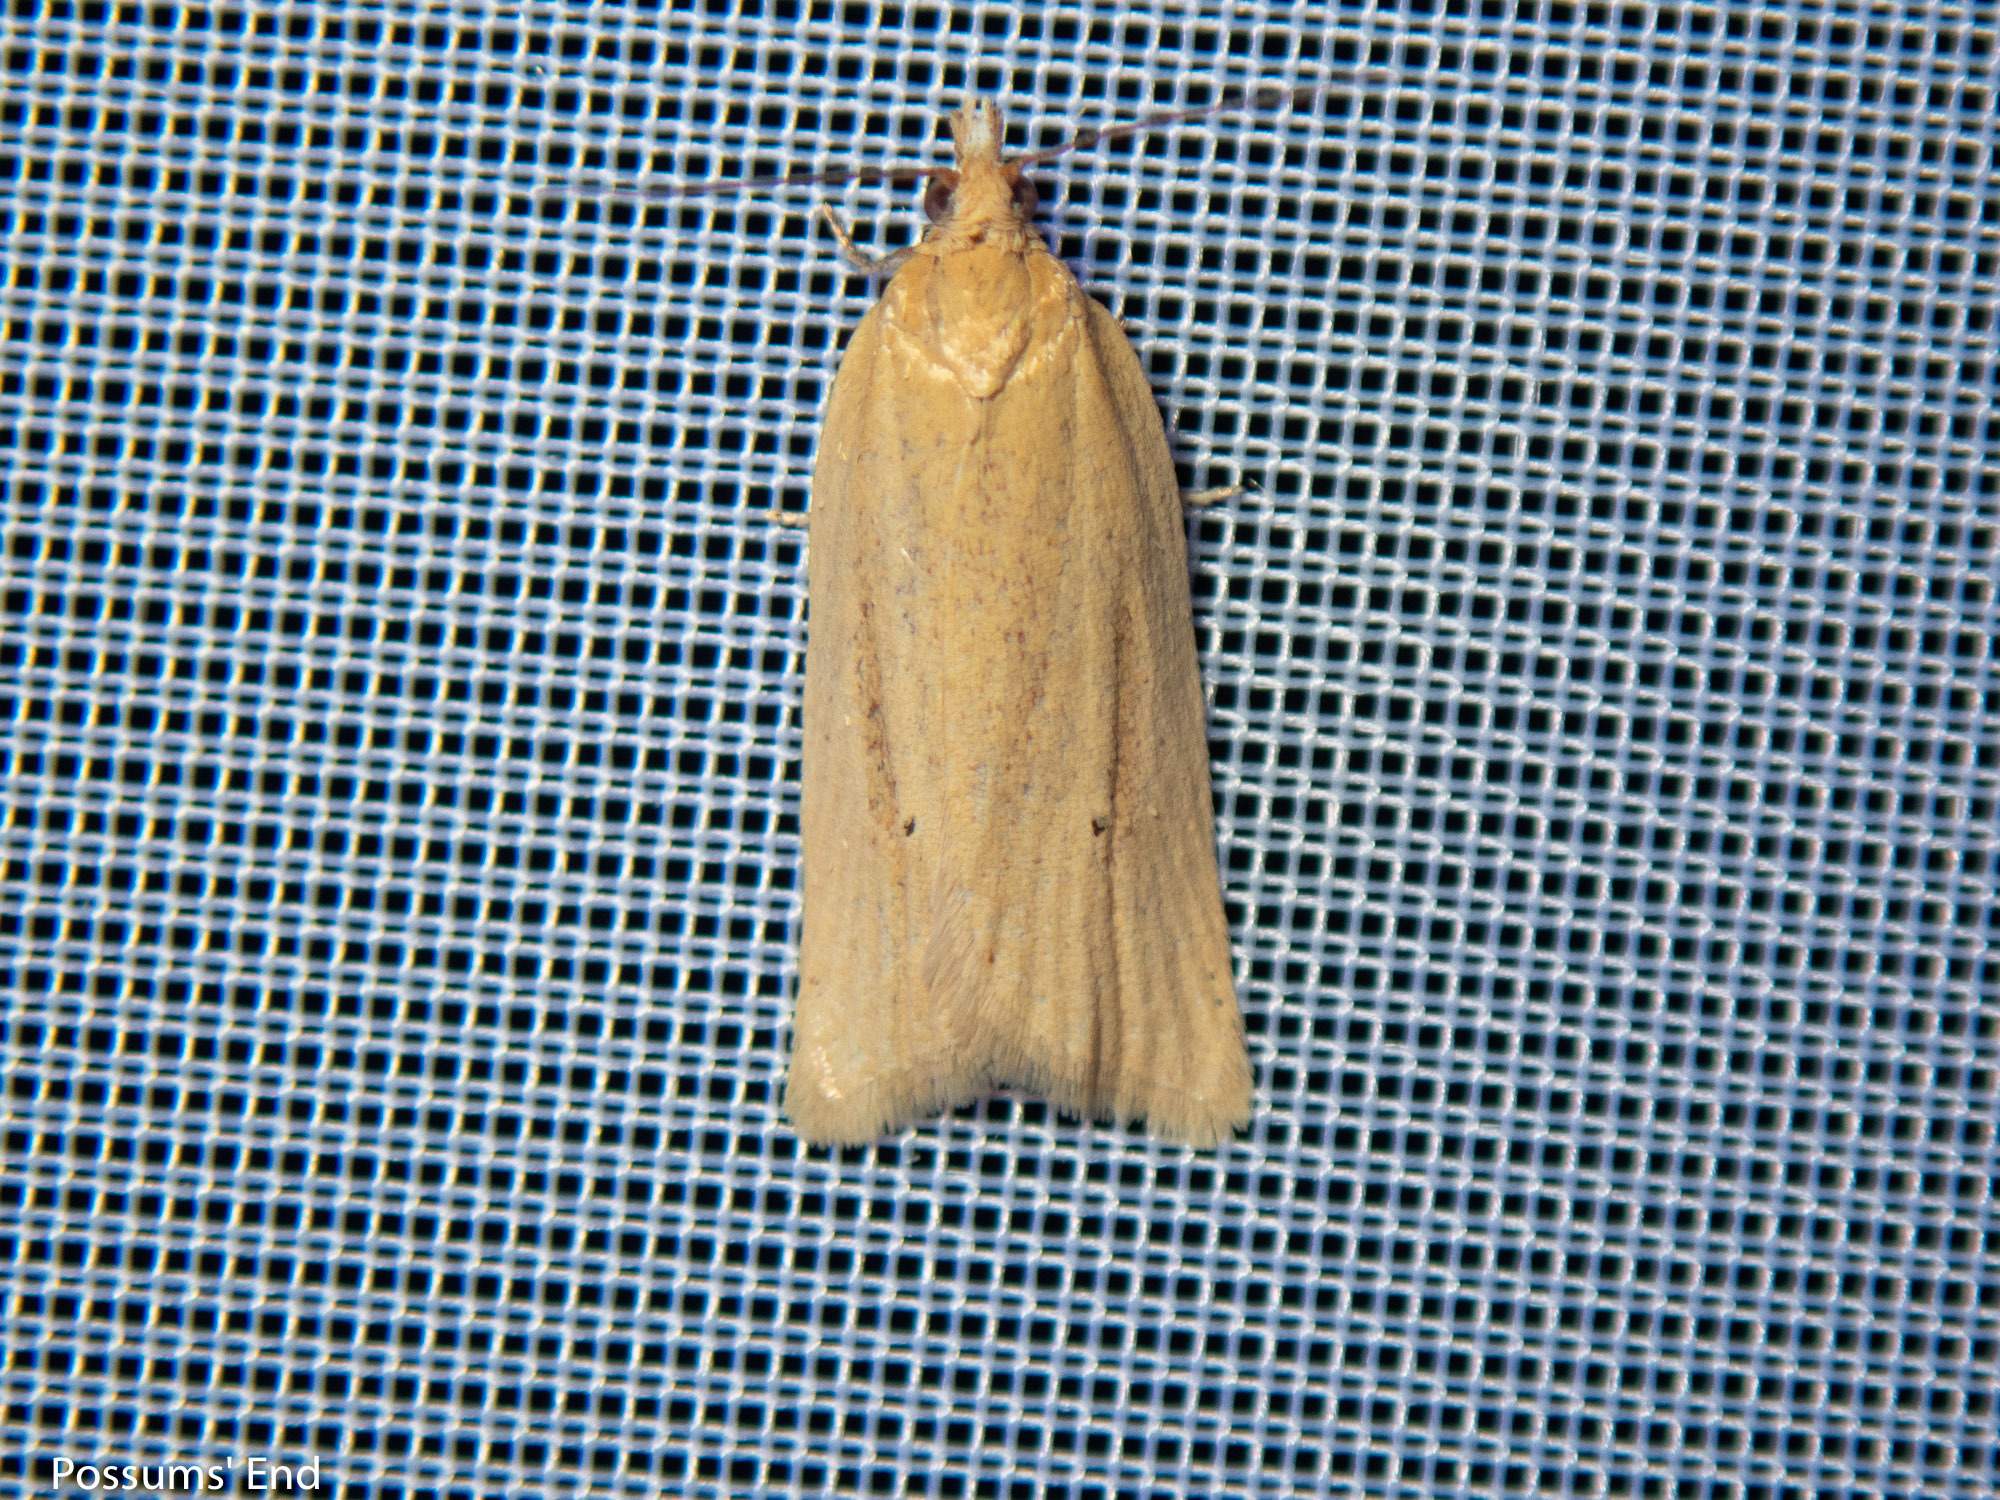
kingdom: Animalia
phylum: Arthropoda
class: Insecta
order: Lepidoptera
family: Tortricidae
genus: Clepsis
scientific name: Clepsis
